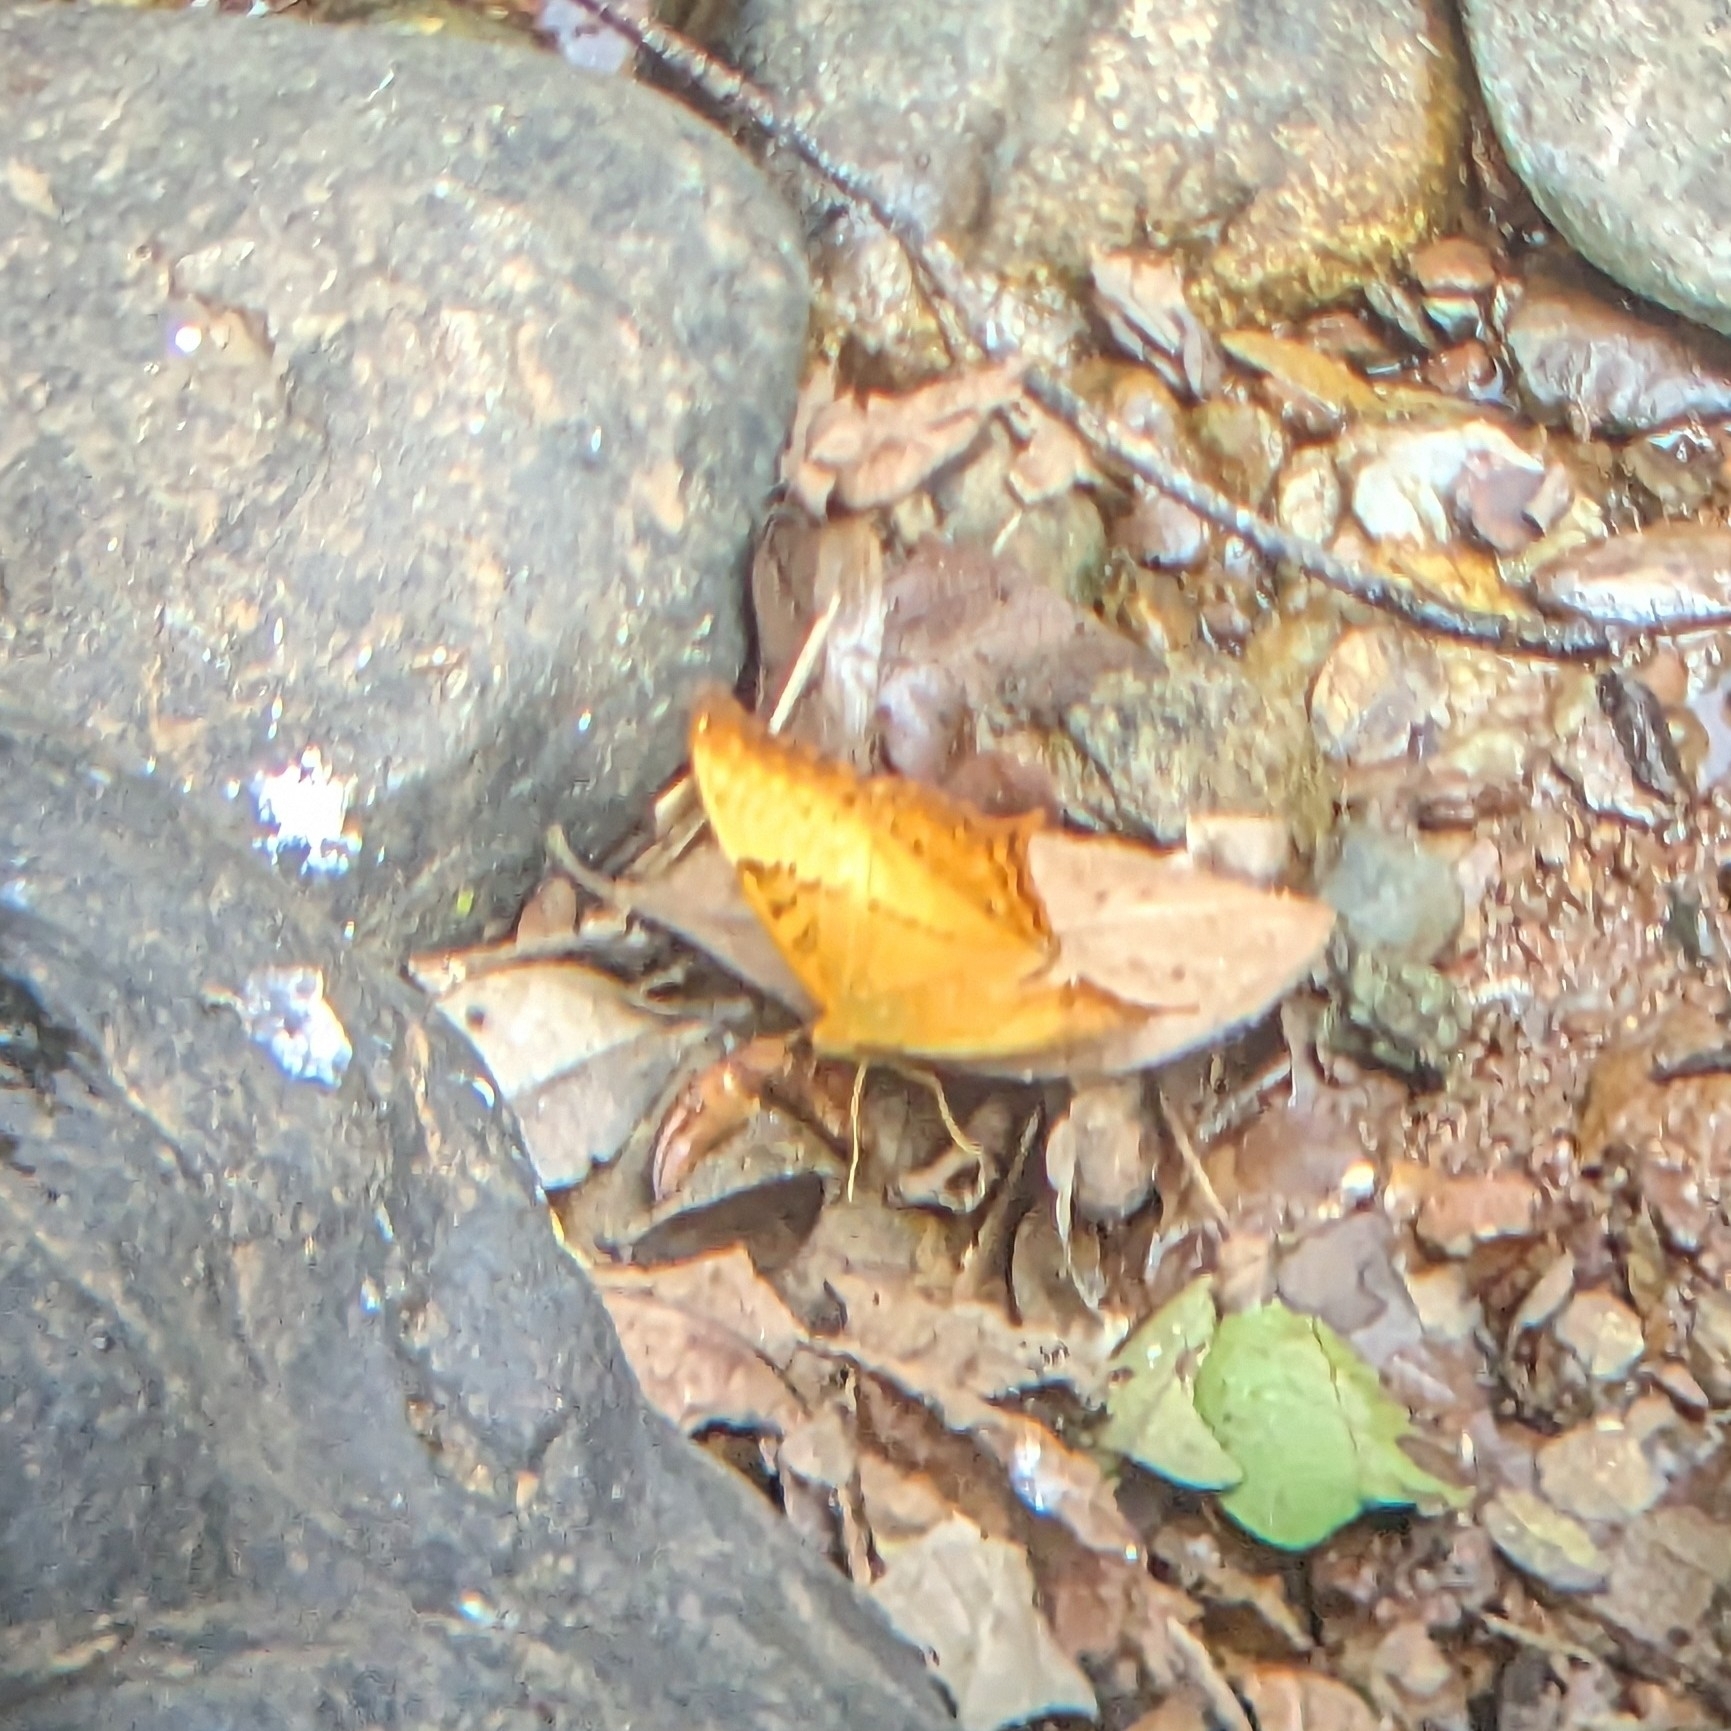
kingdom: Animalia
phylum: Arthropoda
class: Insecta
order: Lepidoptera
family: Nymphalidae
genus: Vindula
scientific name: Vindula erota
